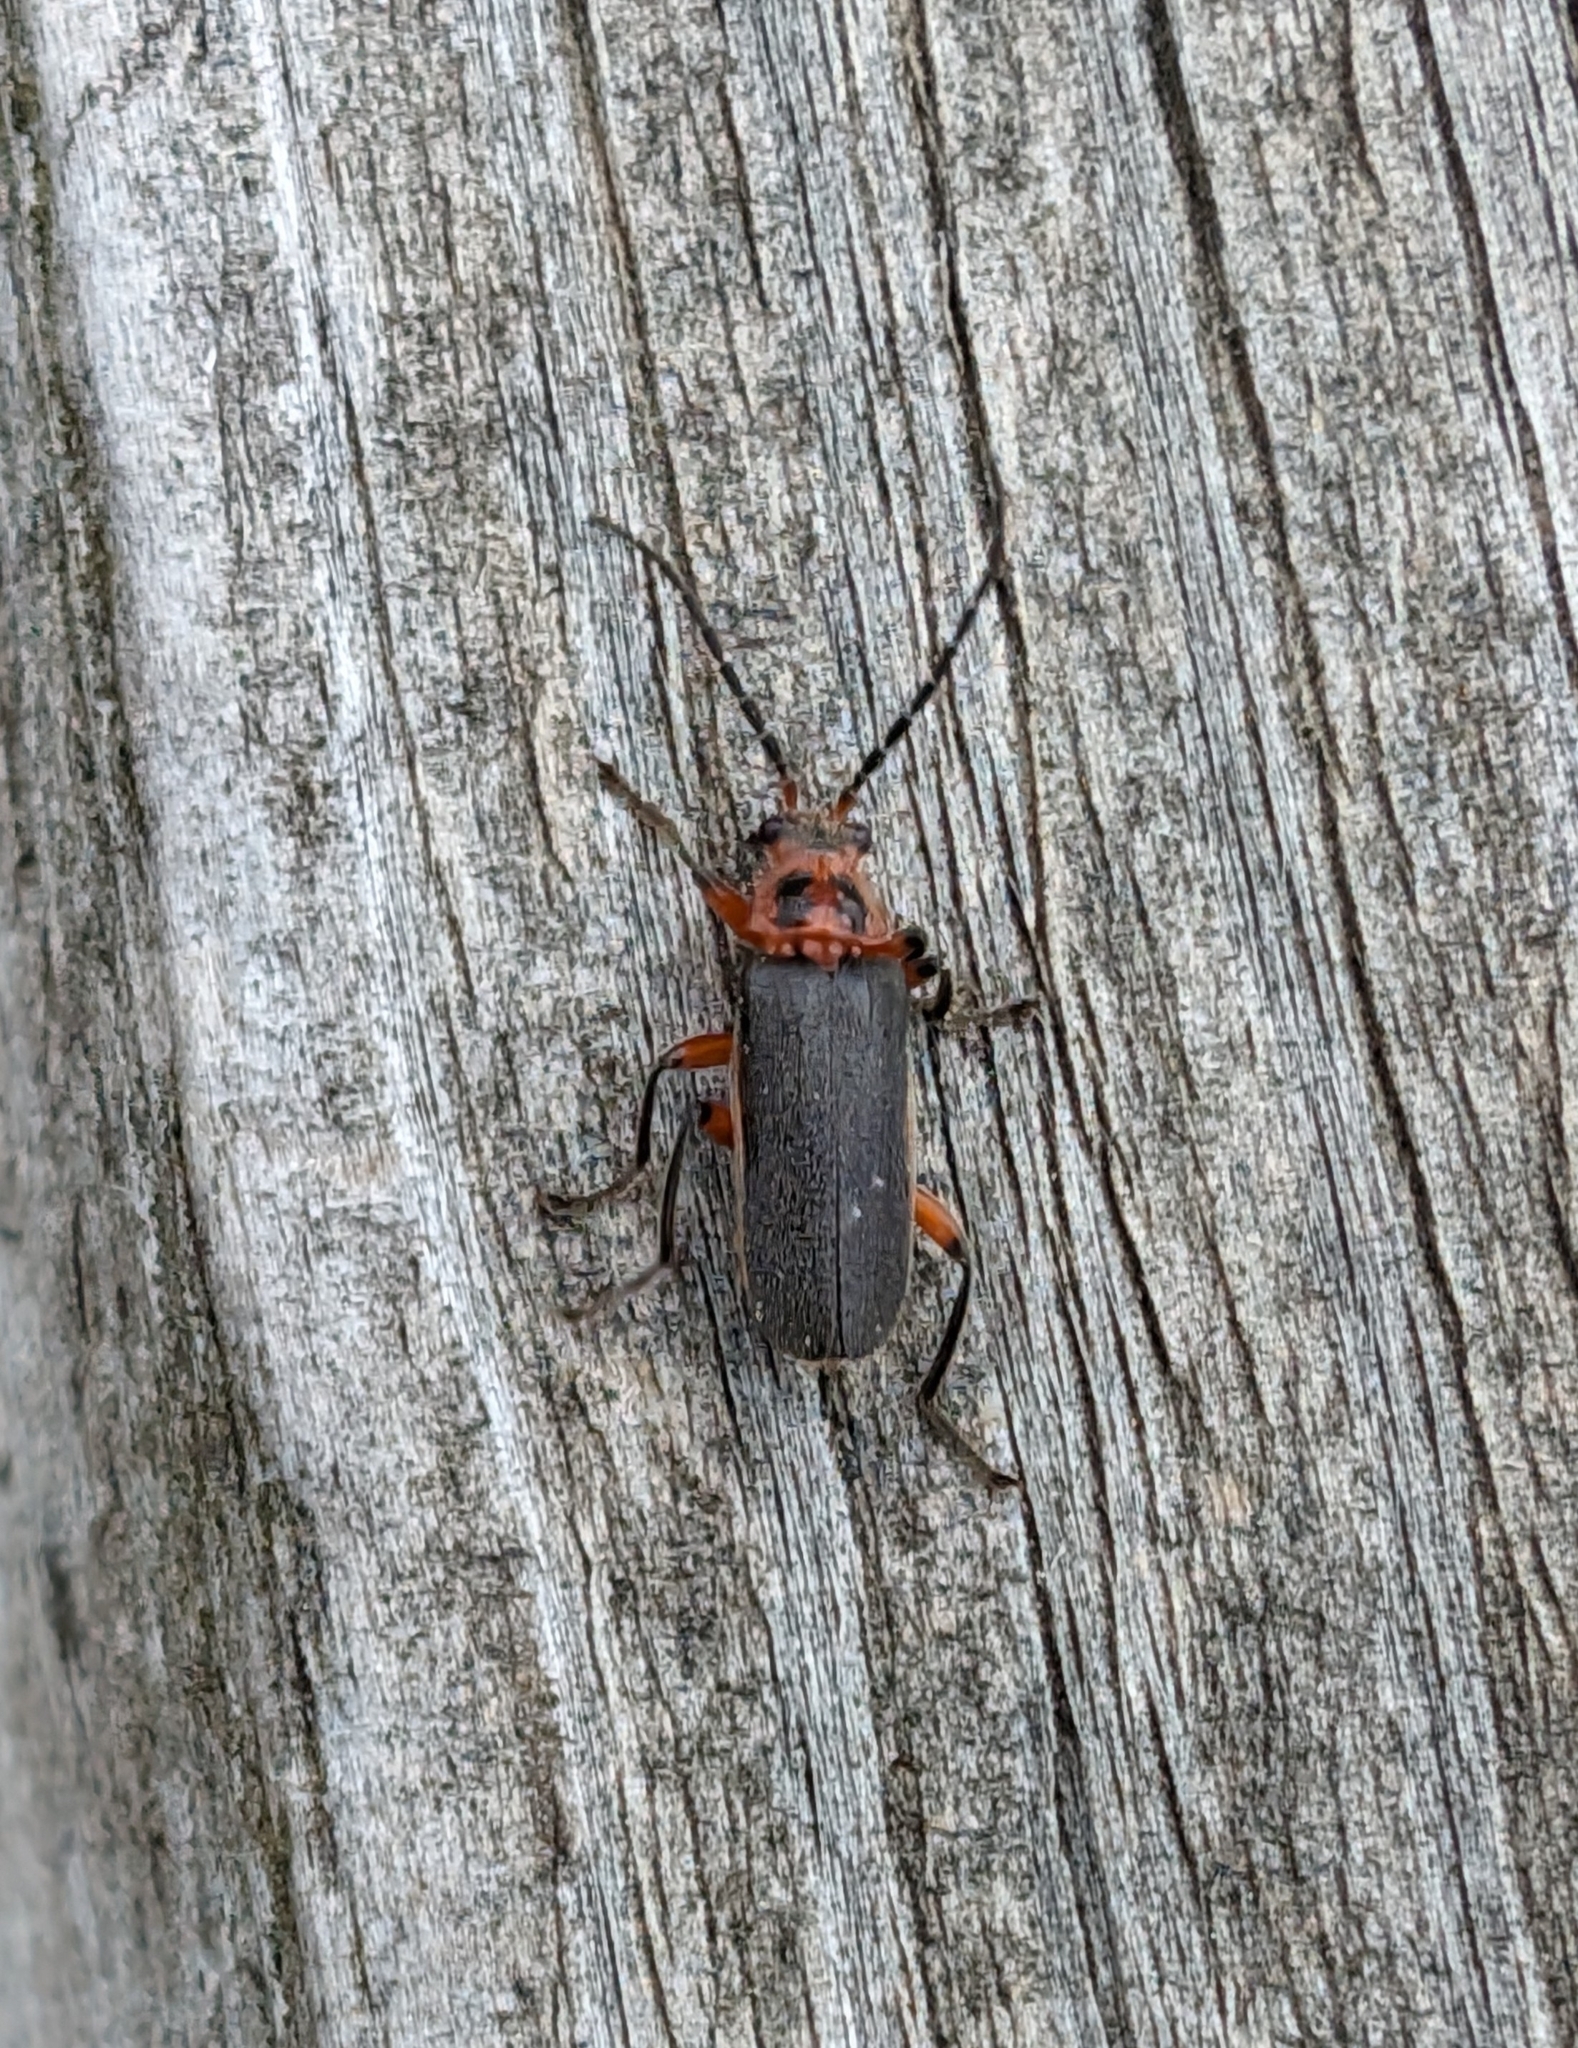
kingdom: Animalia
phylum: Arthropoda
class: Insecta
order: Coleoptera
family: Cantharidae
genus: Atalantycha
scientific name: Atalantycha bilineata
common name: Two-lined leatherwing
